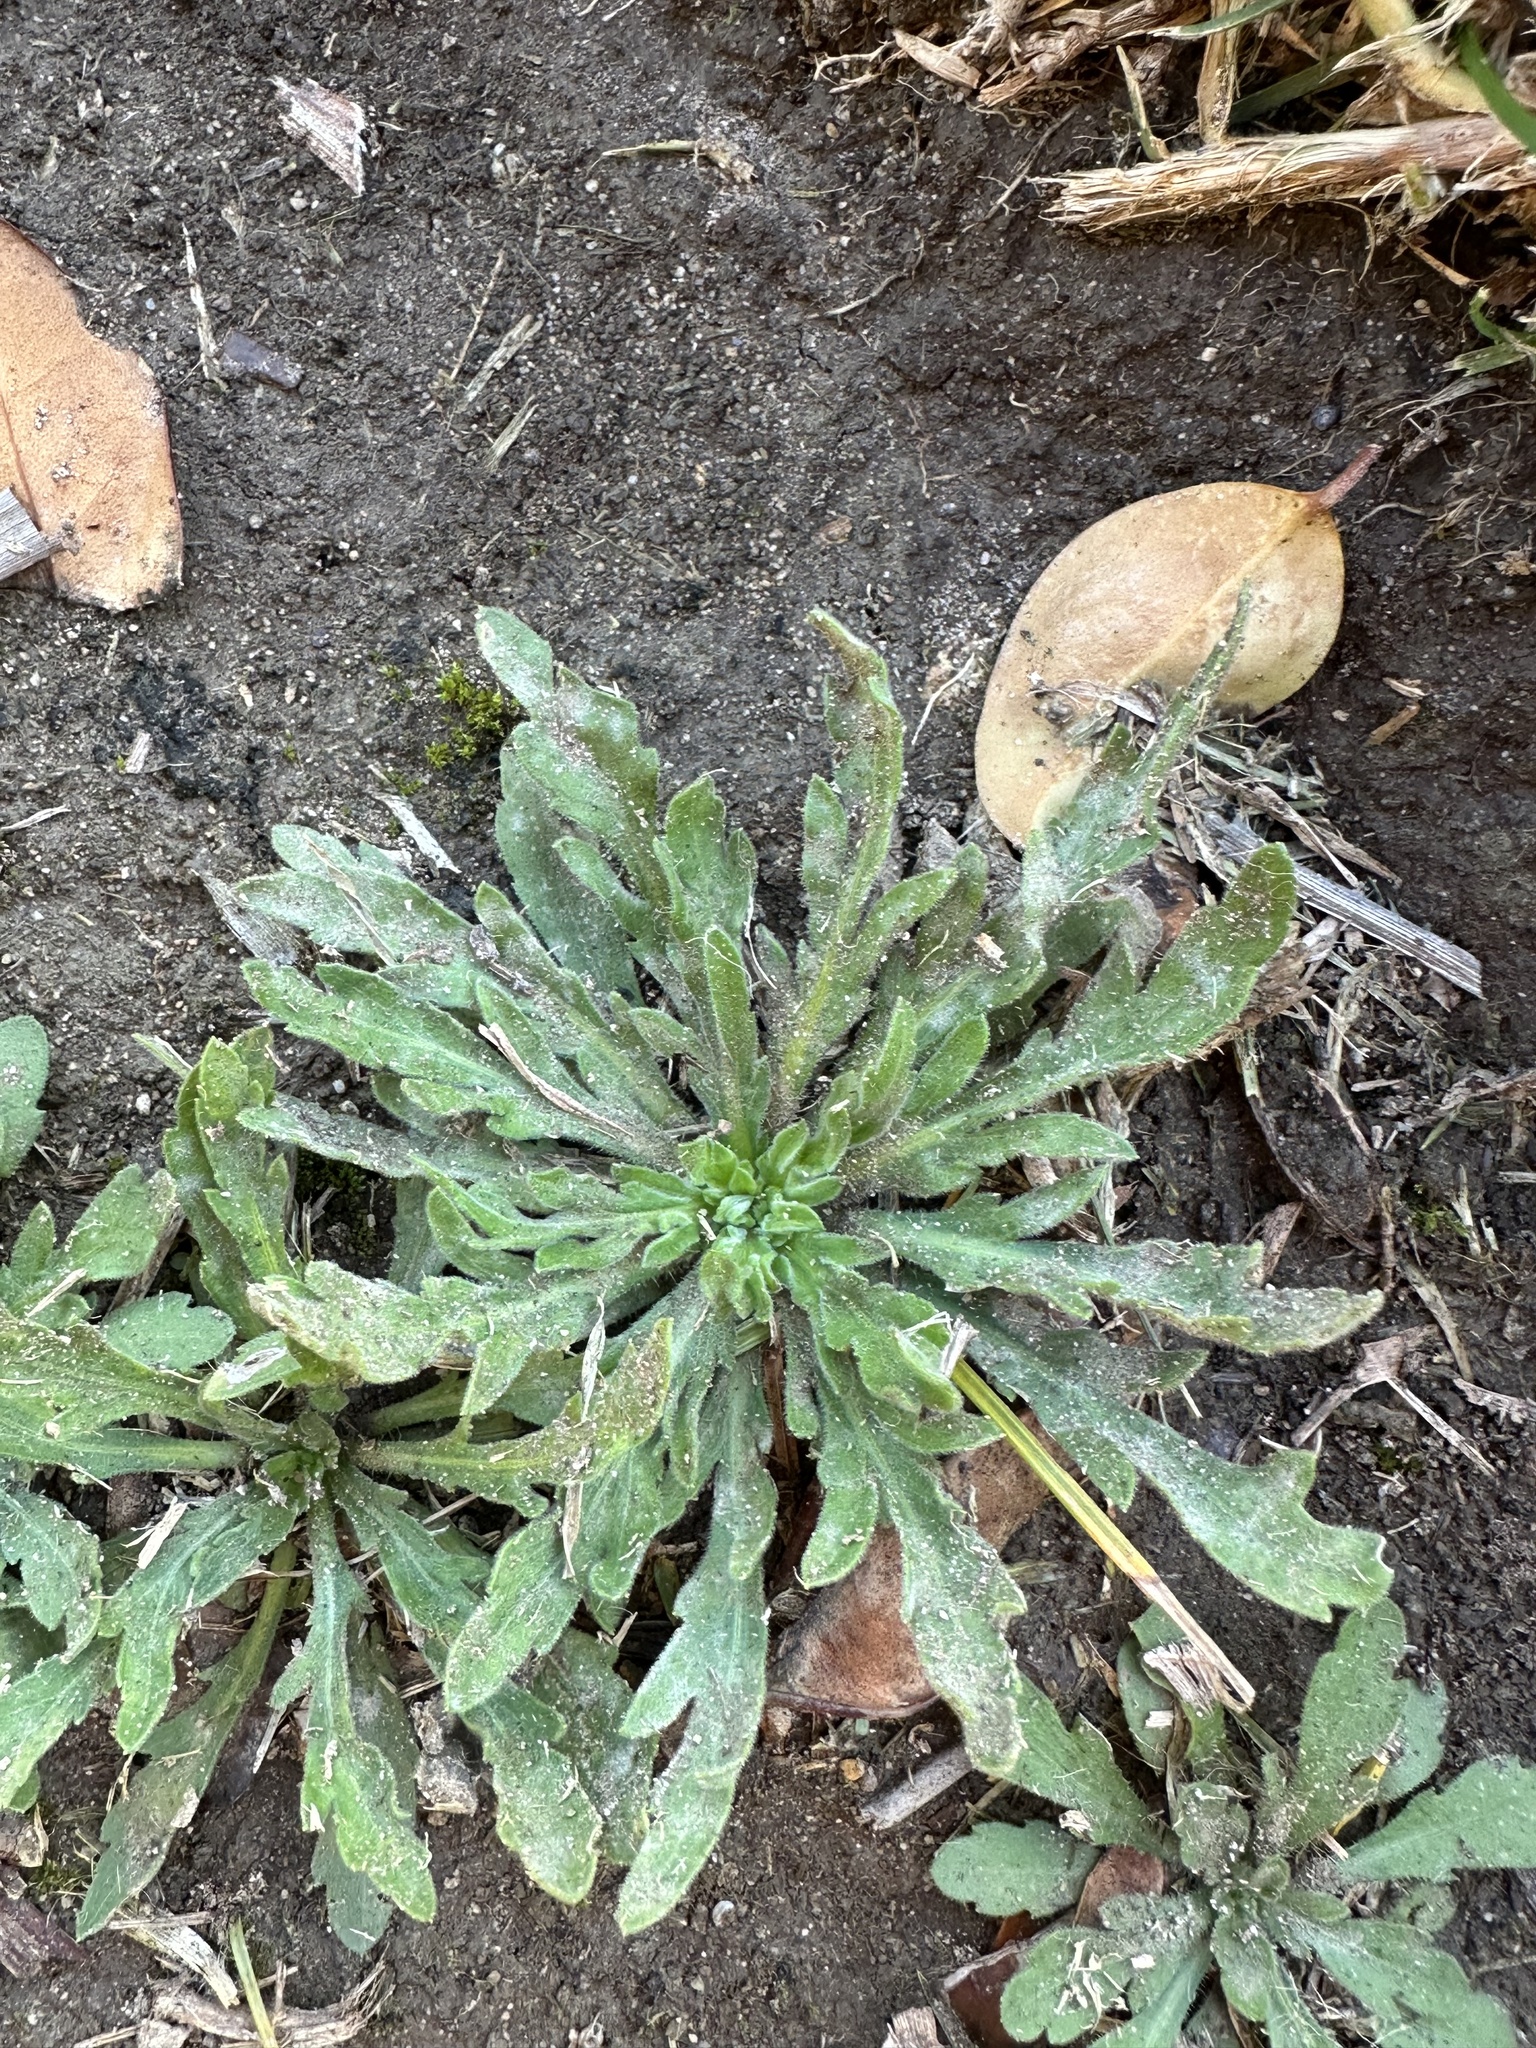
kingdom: Plantae
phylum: Tracheophyta
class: Magnoliopsida
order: Myrtales
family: Onagraceae
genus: Camissoniopsis
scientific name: Camissoniopsis micrantha
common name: Miniature suncup
